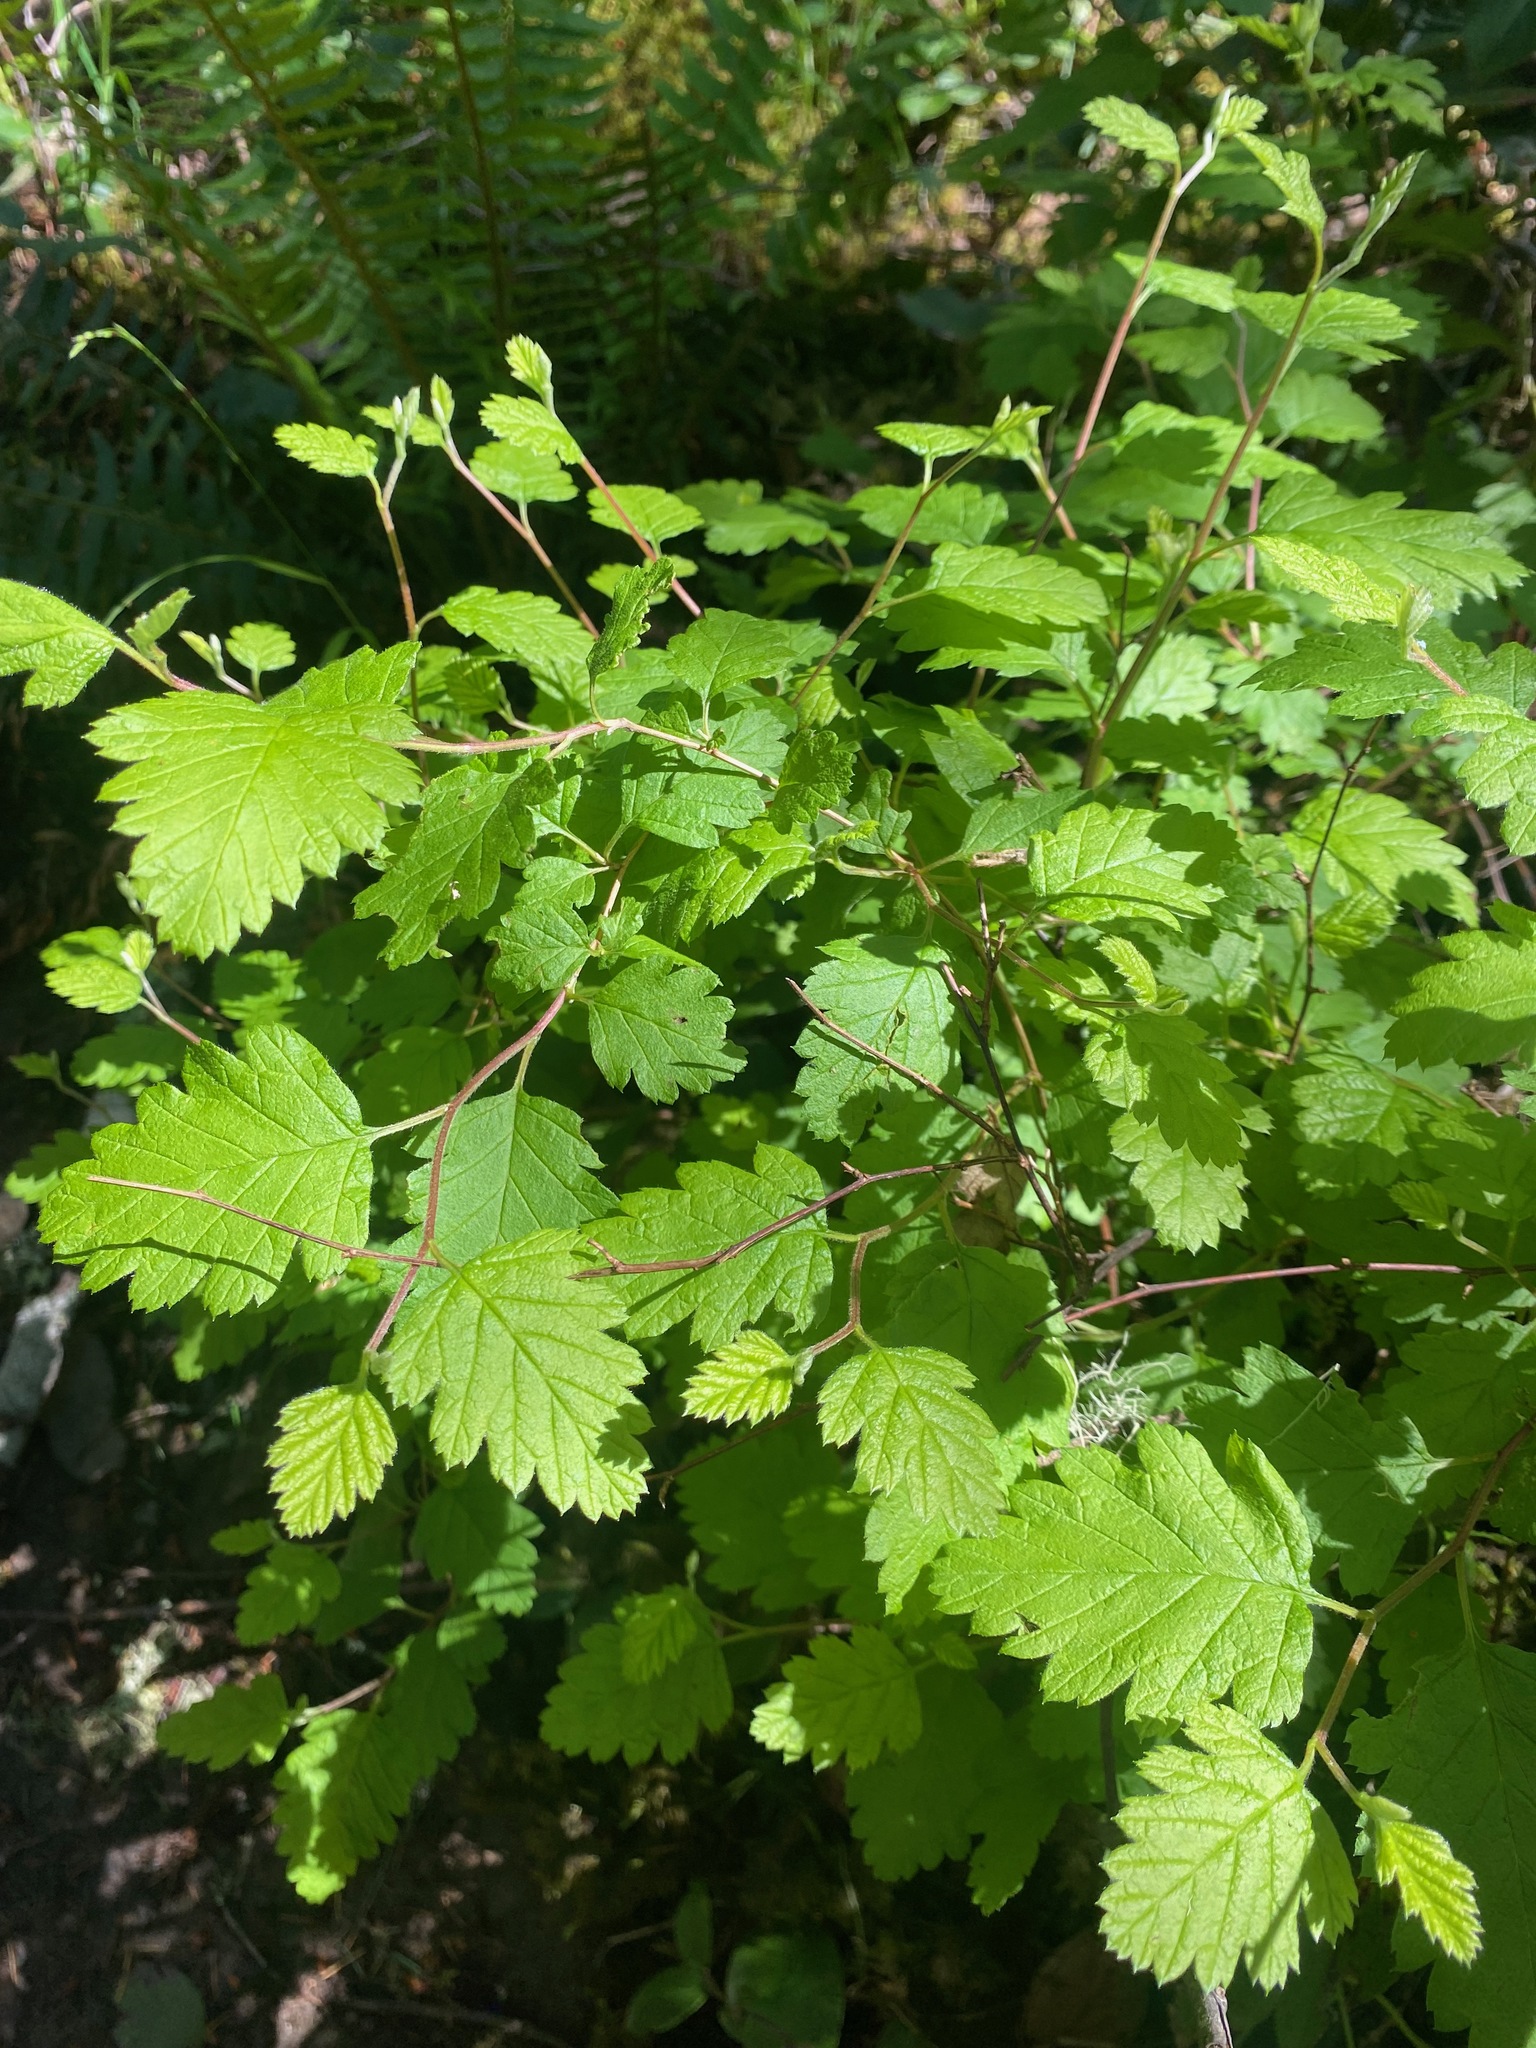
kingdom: Plantae
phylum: Tracheophyta
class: Magnoliopsida
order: Rosales
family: Rosaceae
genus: Holodiscus
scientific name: Holodiscus discolor
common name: Oceanspray
